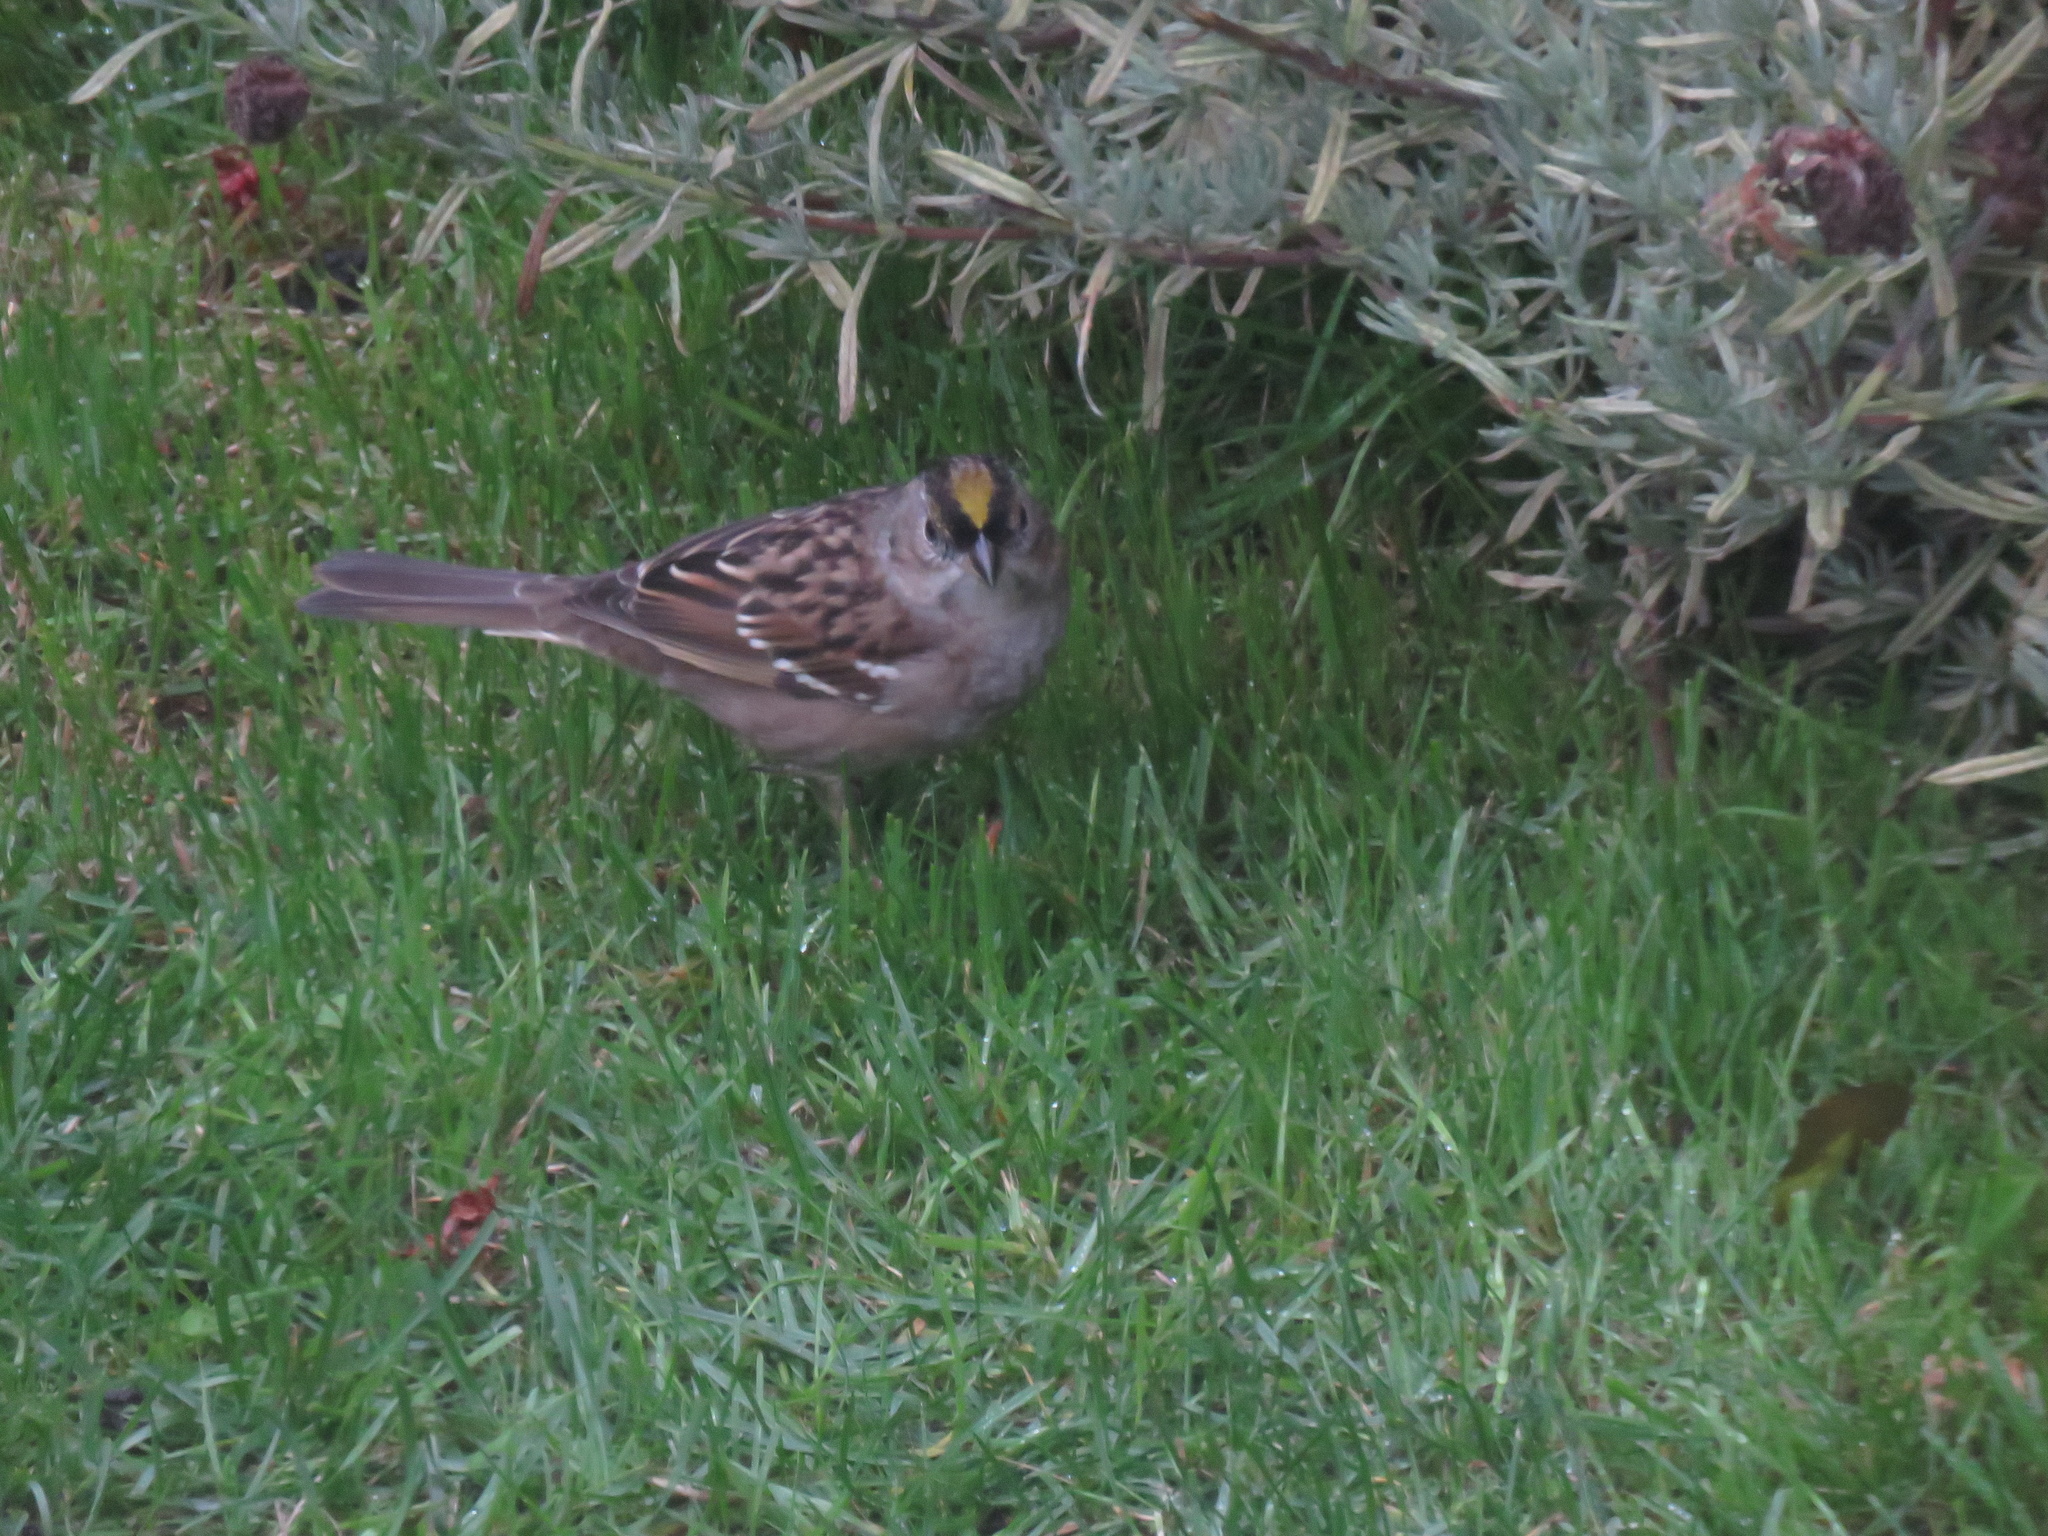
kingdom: Animalia
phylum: Chordata
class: Aves
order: Passeriformes
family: Passerellidae
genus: Zonotrichia
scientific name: Zonotrichia atricapilla
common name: Golden-crowned sparrow
